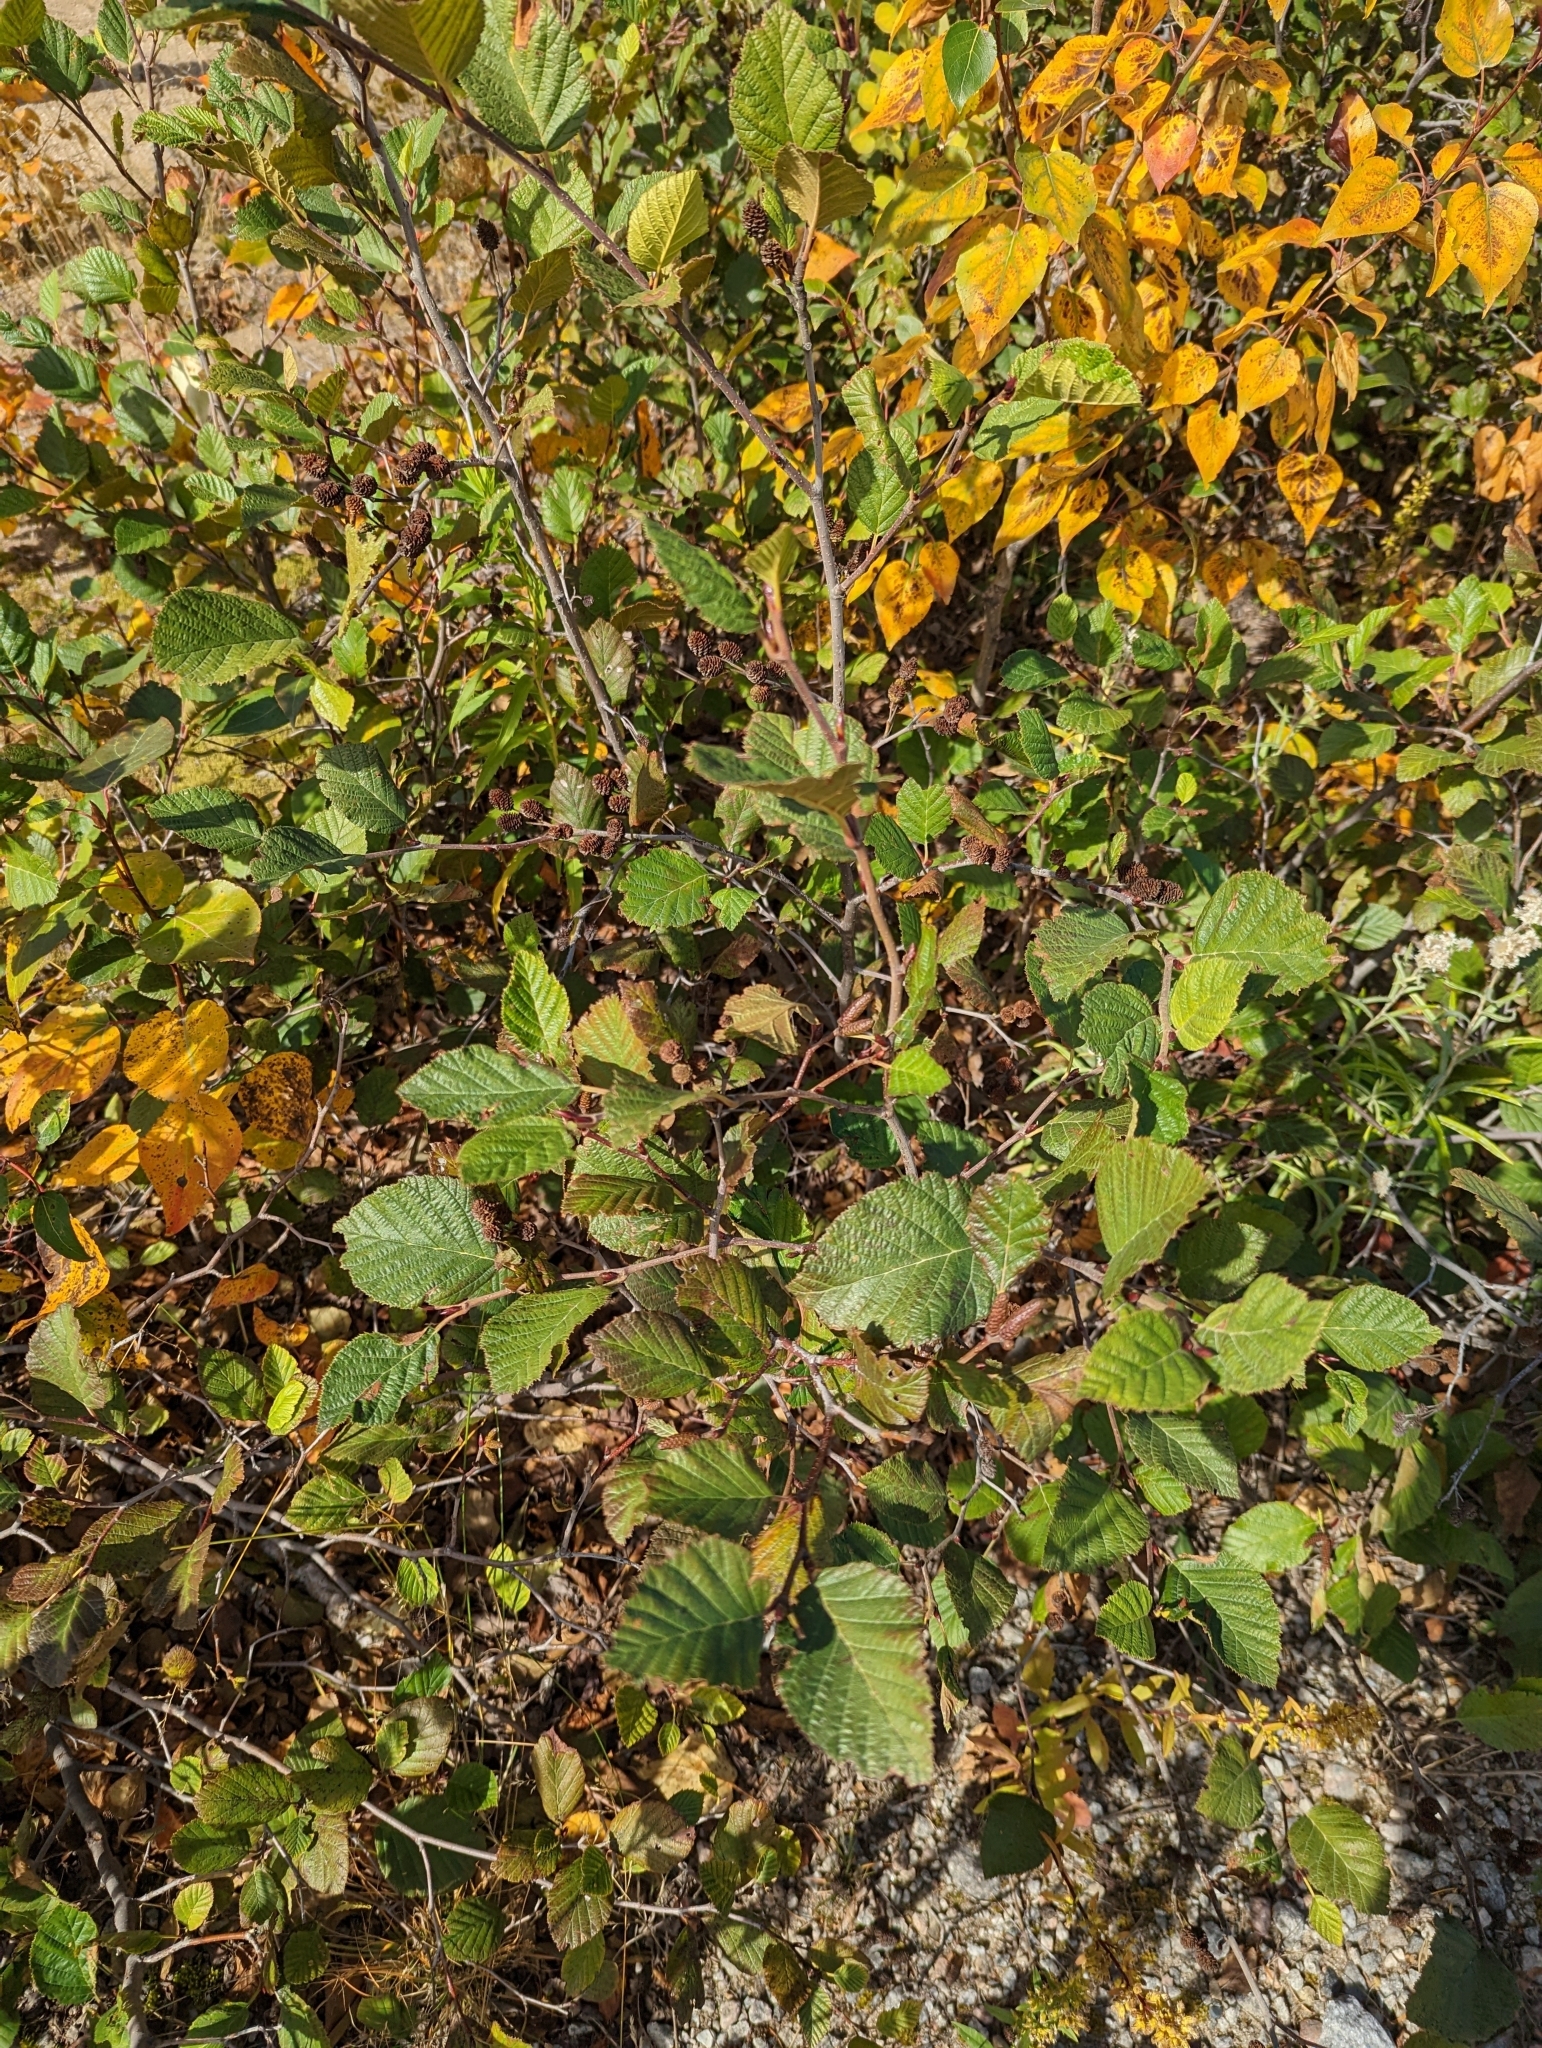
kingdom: Plantae
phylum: Tracheophyta
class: Magnoliopsida
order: Fagales
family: Betulaceae
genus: Alnus
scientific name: Alnus alnobetula
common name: Green alder
